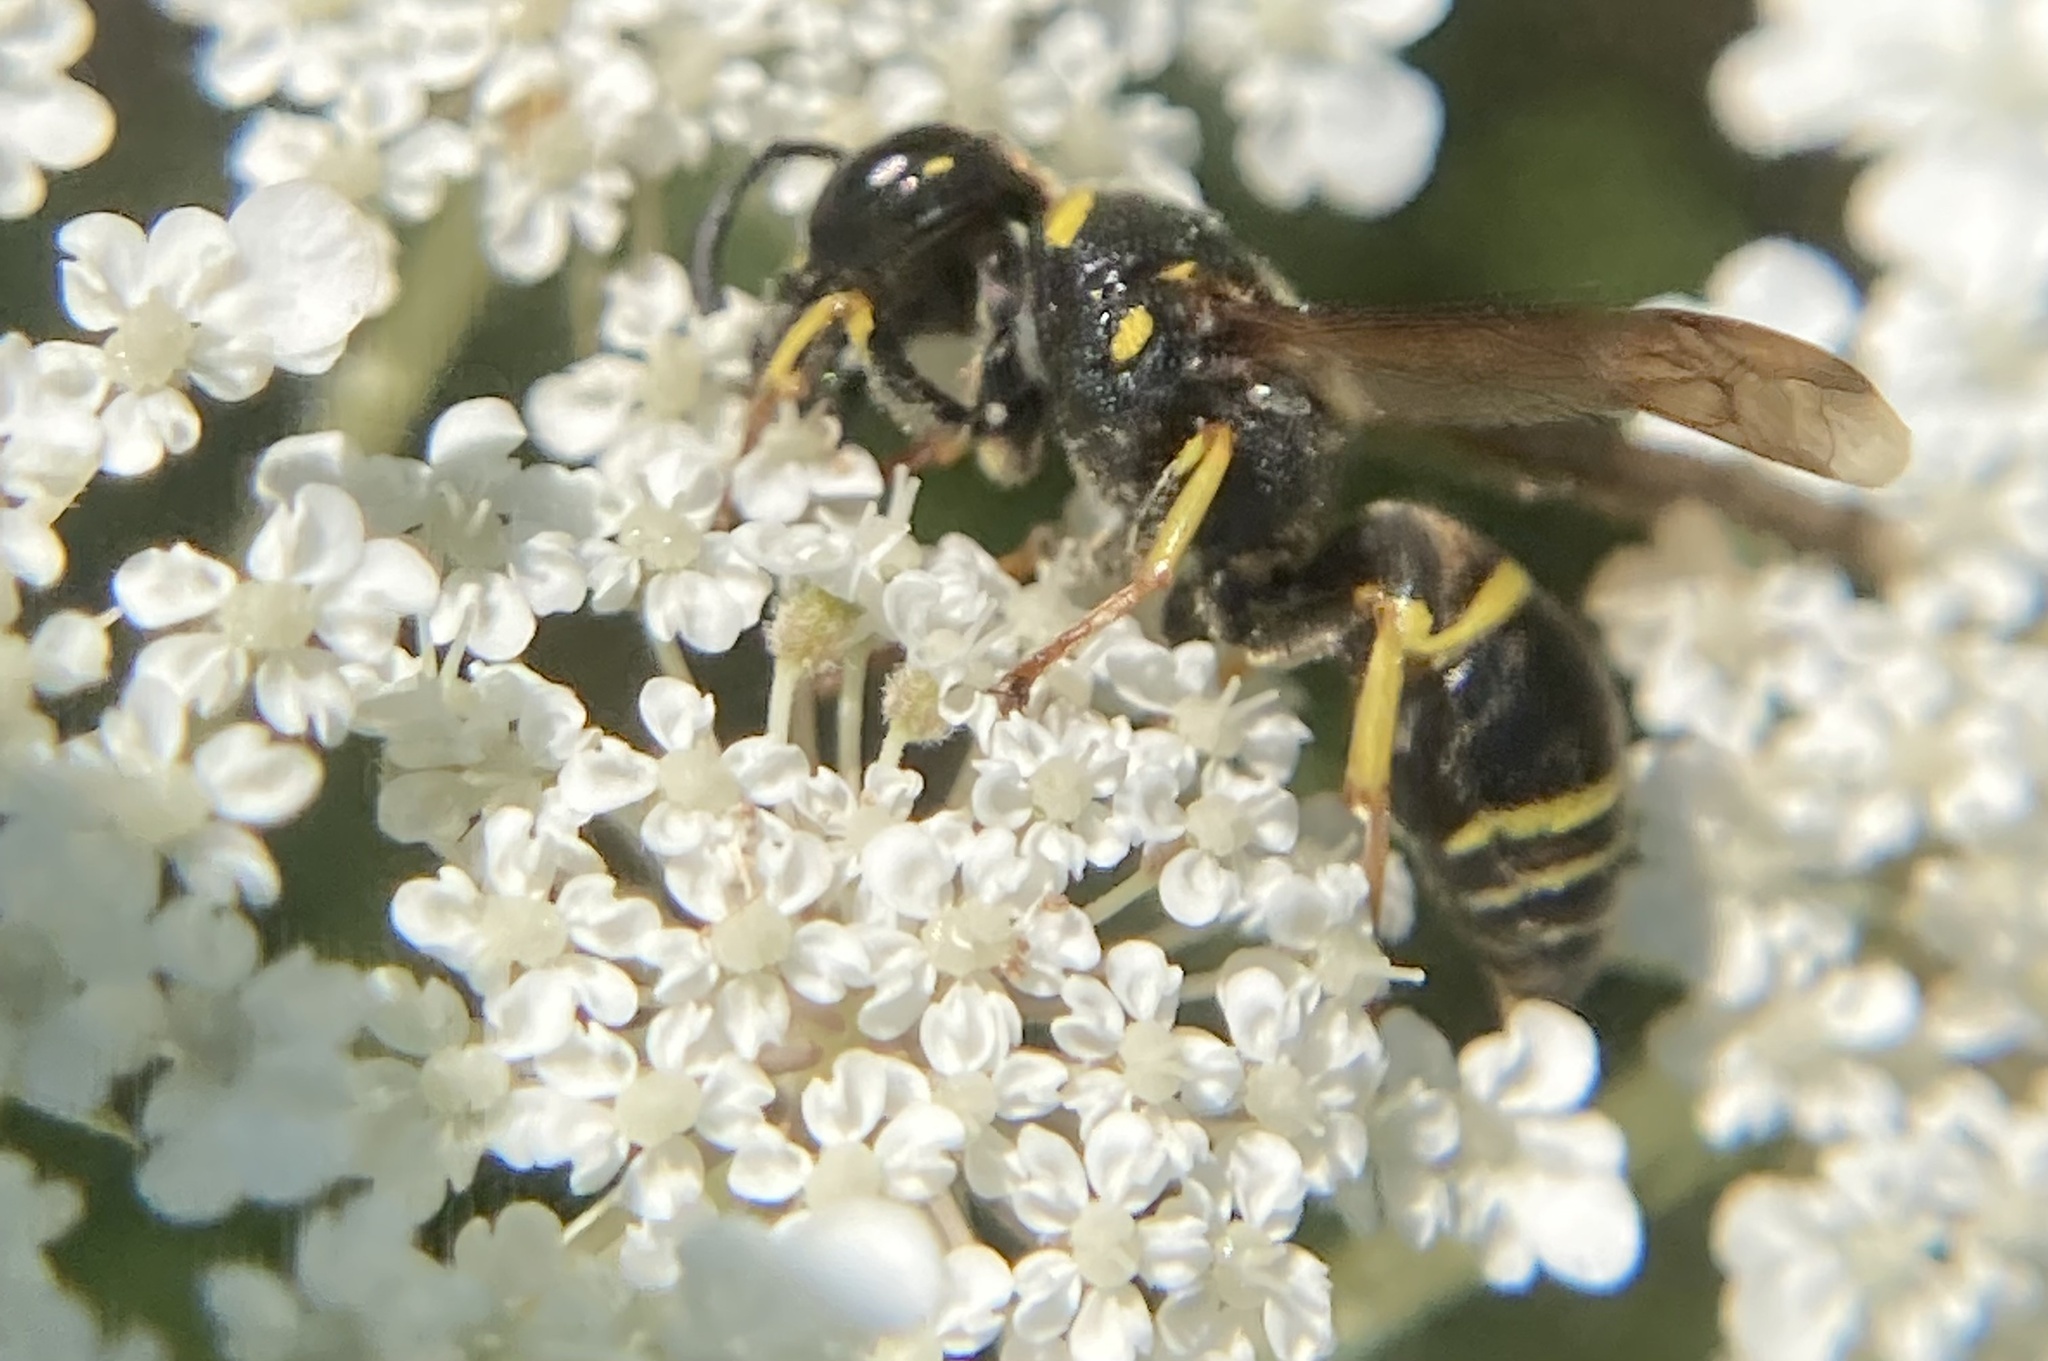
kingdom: Animalia
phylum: Arthropoda
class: Insecta
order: Hymenoptera
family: Eumenidae
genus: Euodynerus
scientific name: Euodynerus foraminatus
